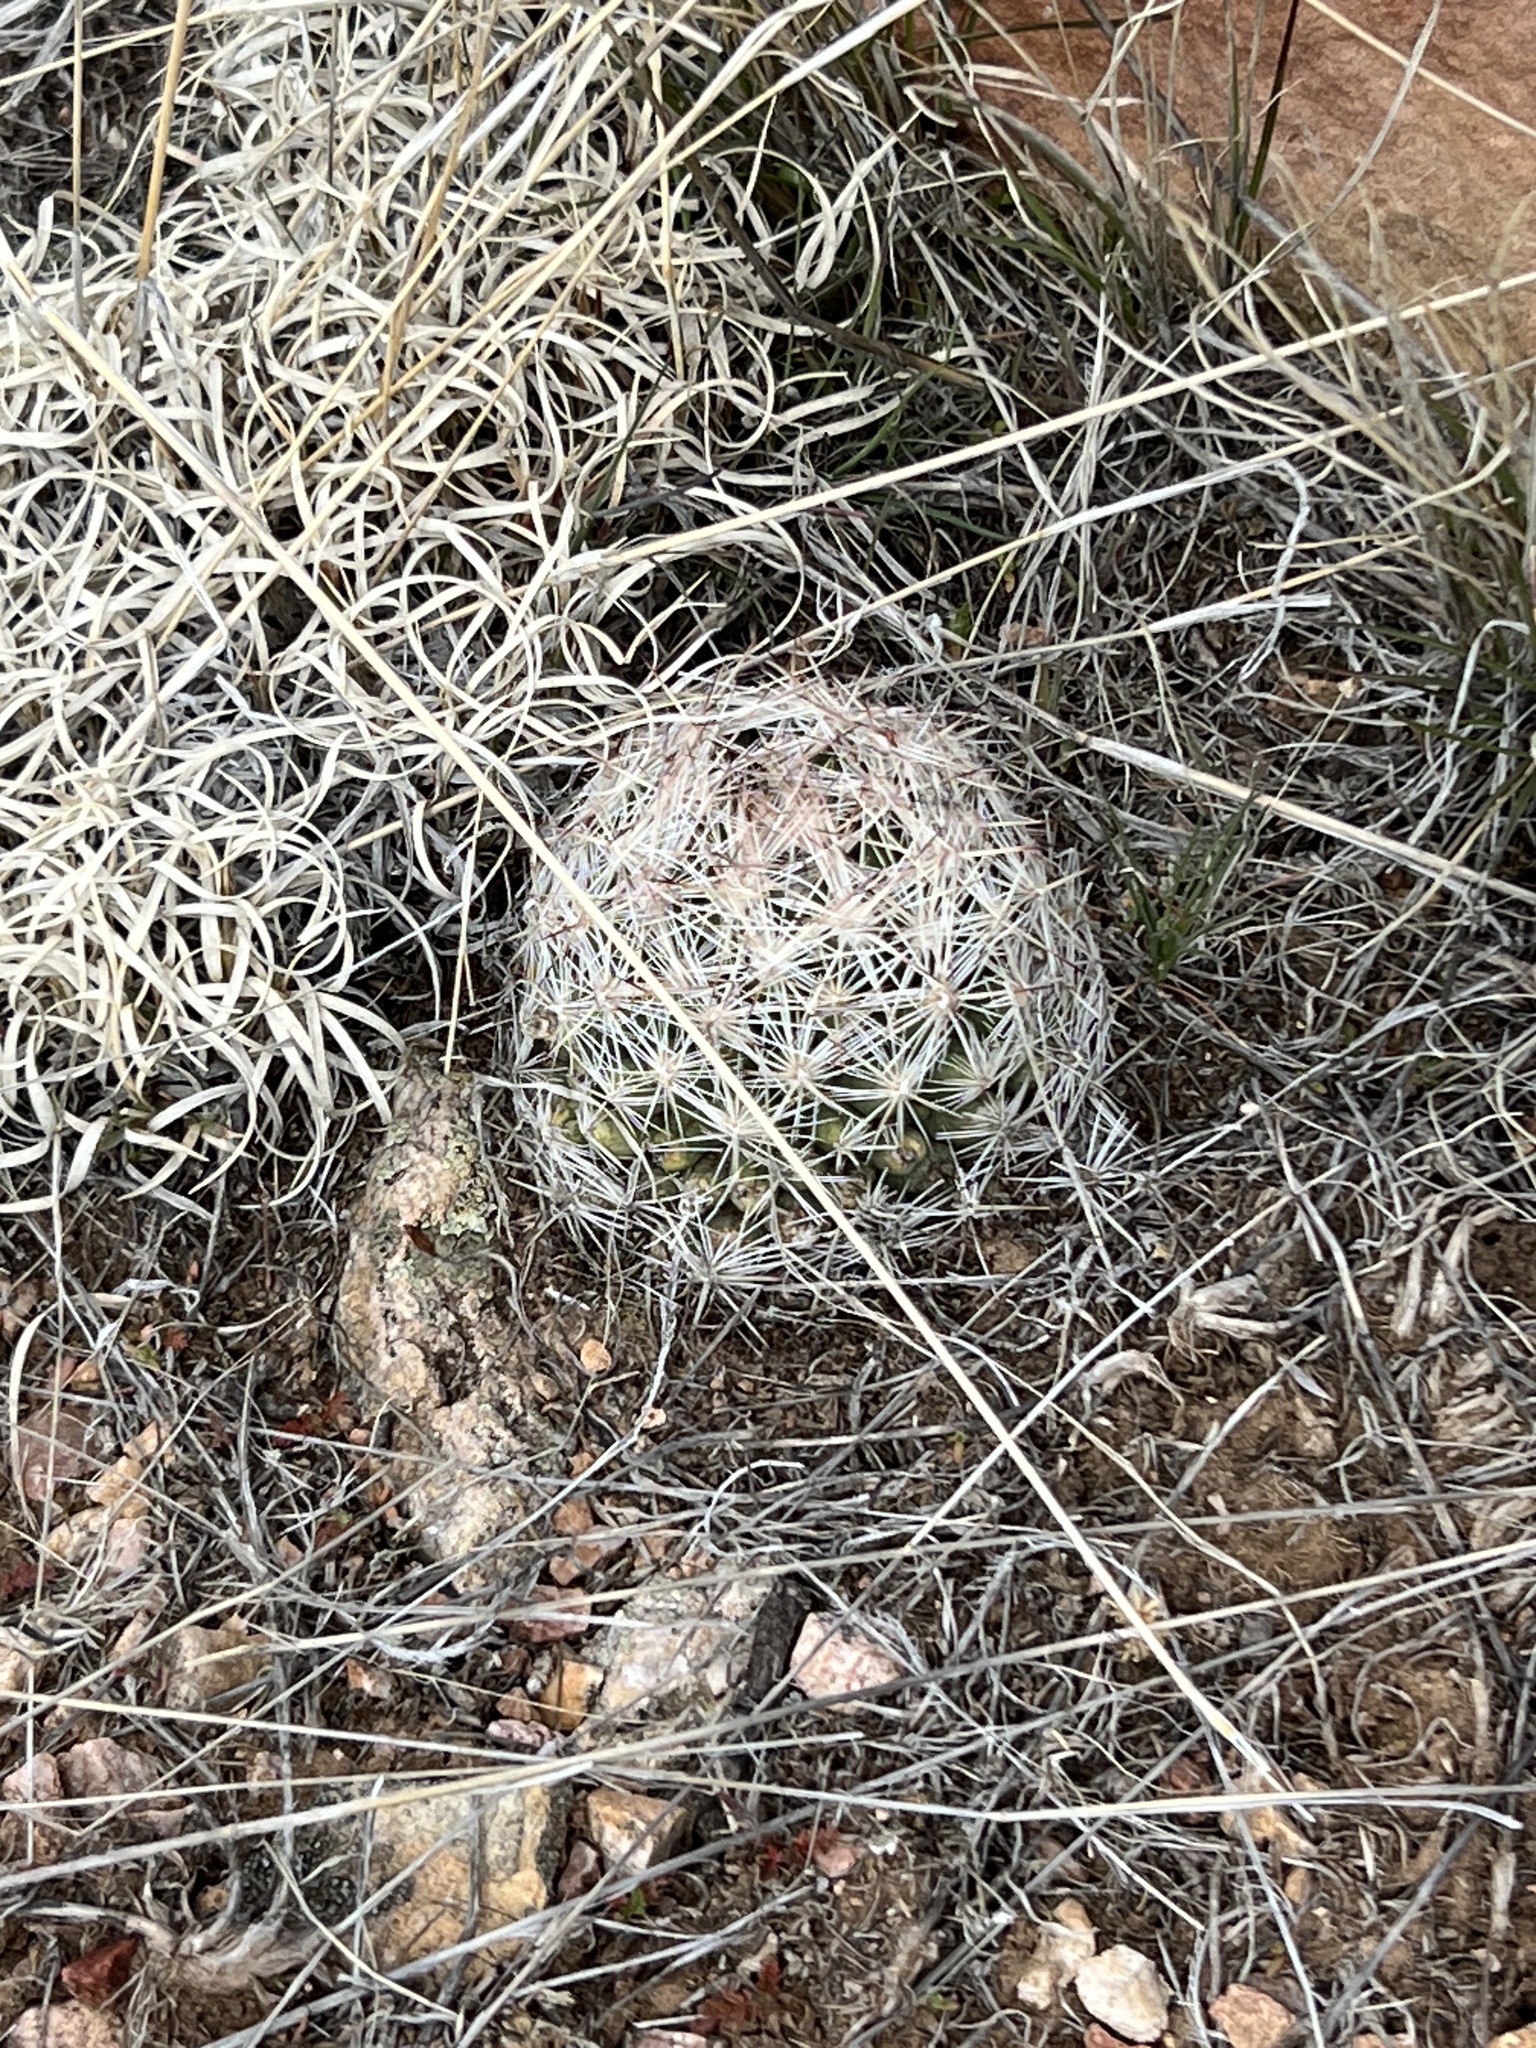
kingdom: Plantae
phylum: Tracheophyta
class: Magnoliopsida
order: Caryophyllales
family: Cactaceae
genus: Pelecyphora
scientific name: Pelecyphora vivipara
